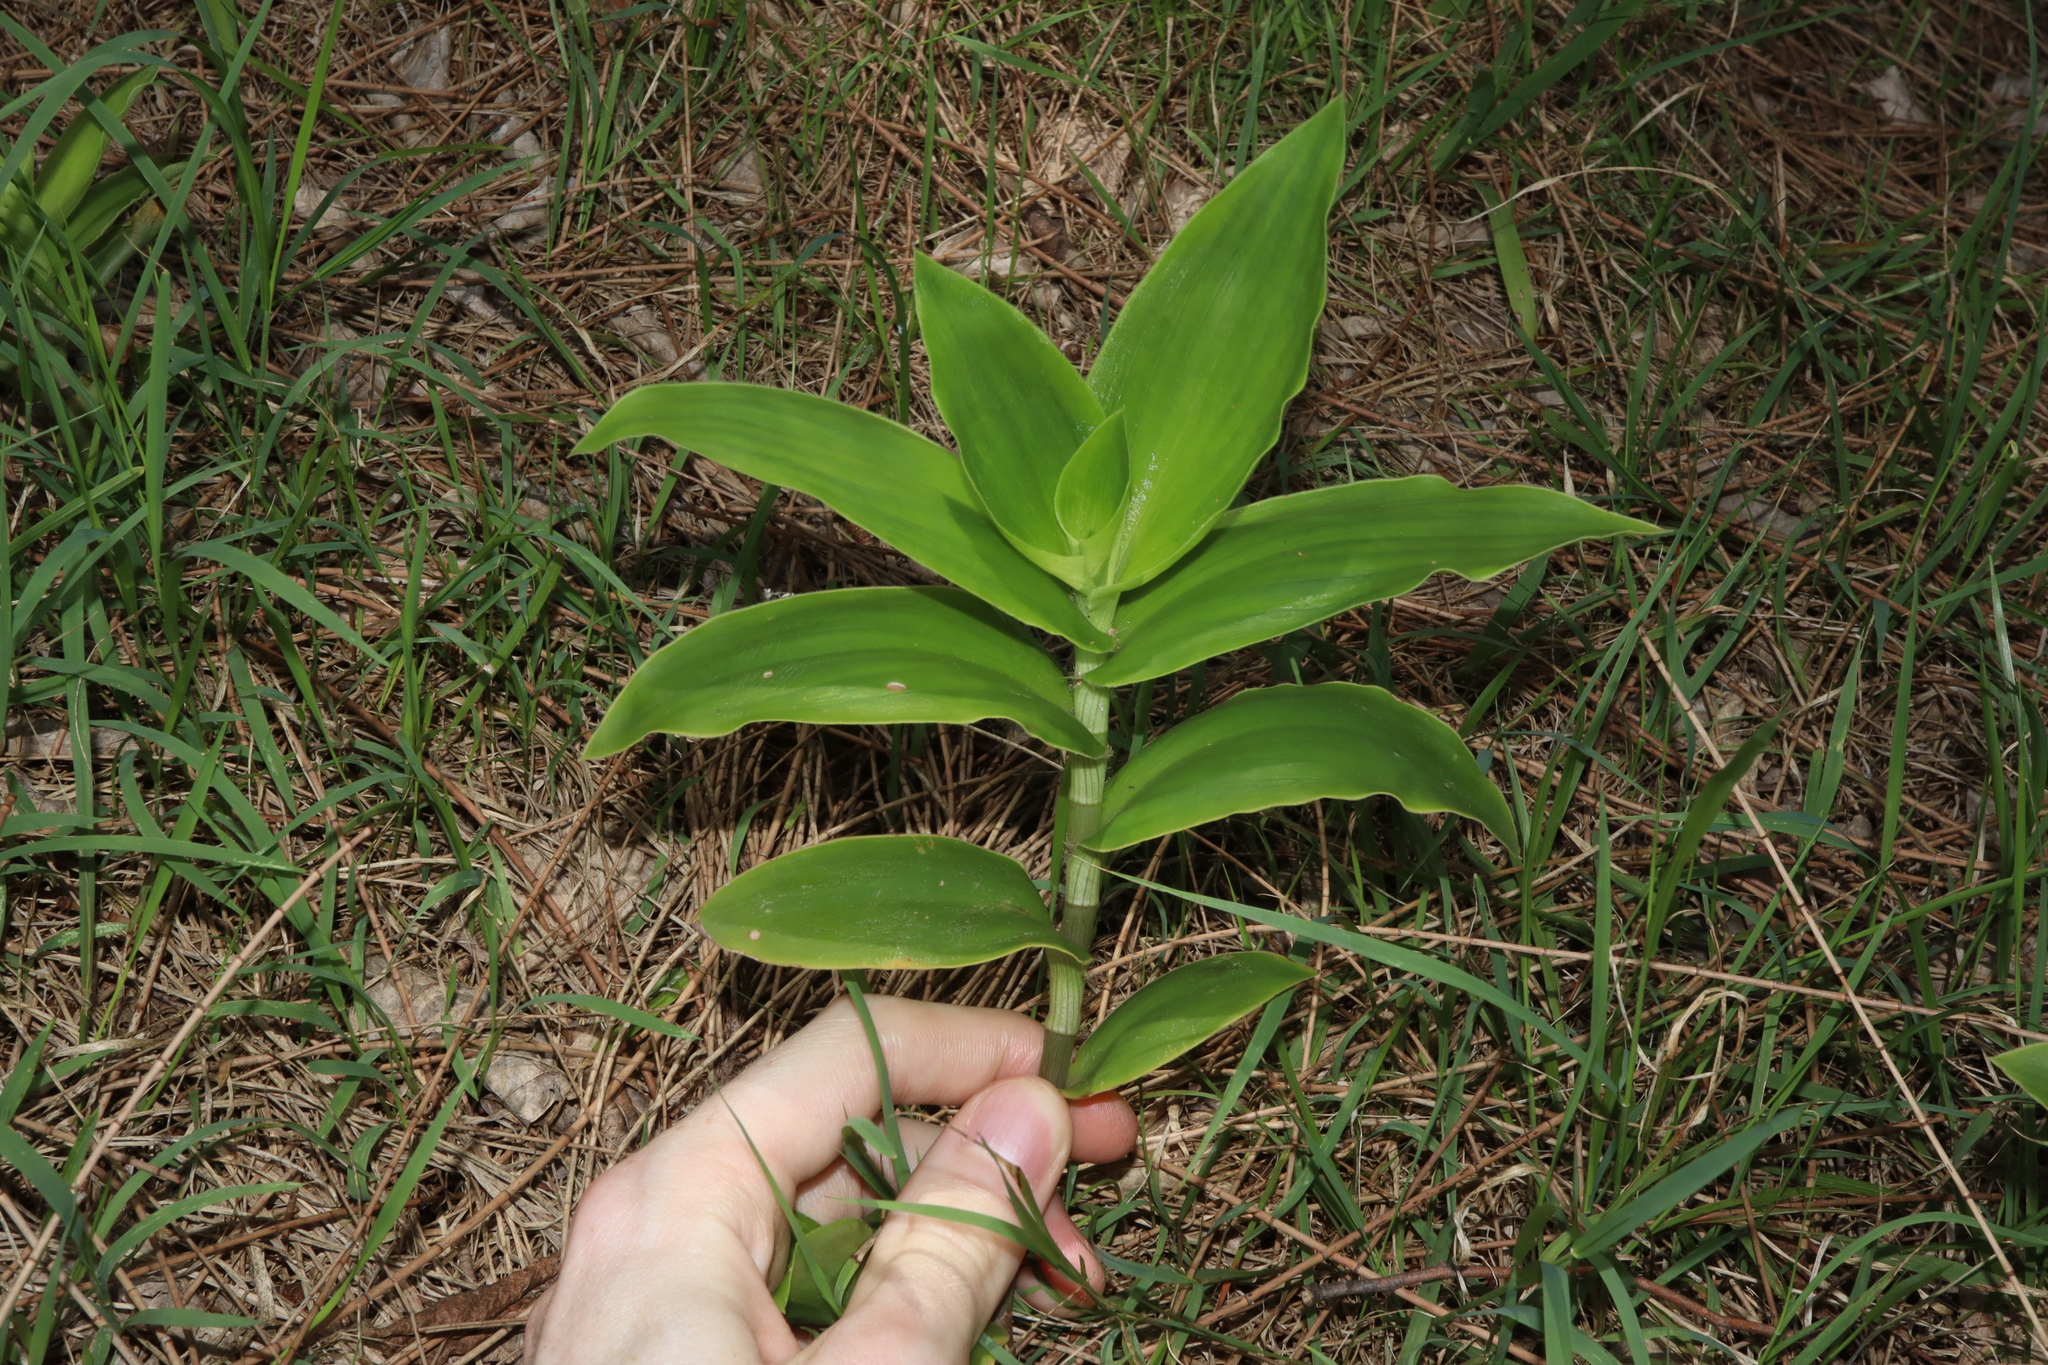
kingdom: Plantae
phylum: Tracheophyta
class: Liliopsida
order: Commelinales
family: Commelinaceae
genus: Tradescantia
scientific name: Tradescantia crassula
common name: Succulent spiderwort
